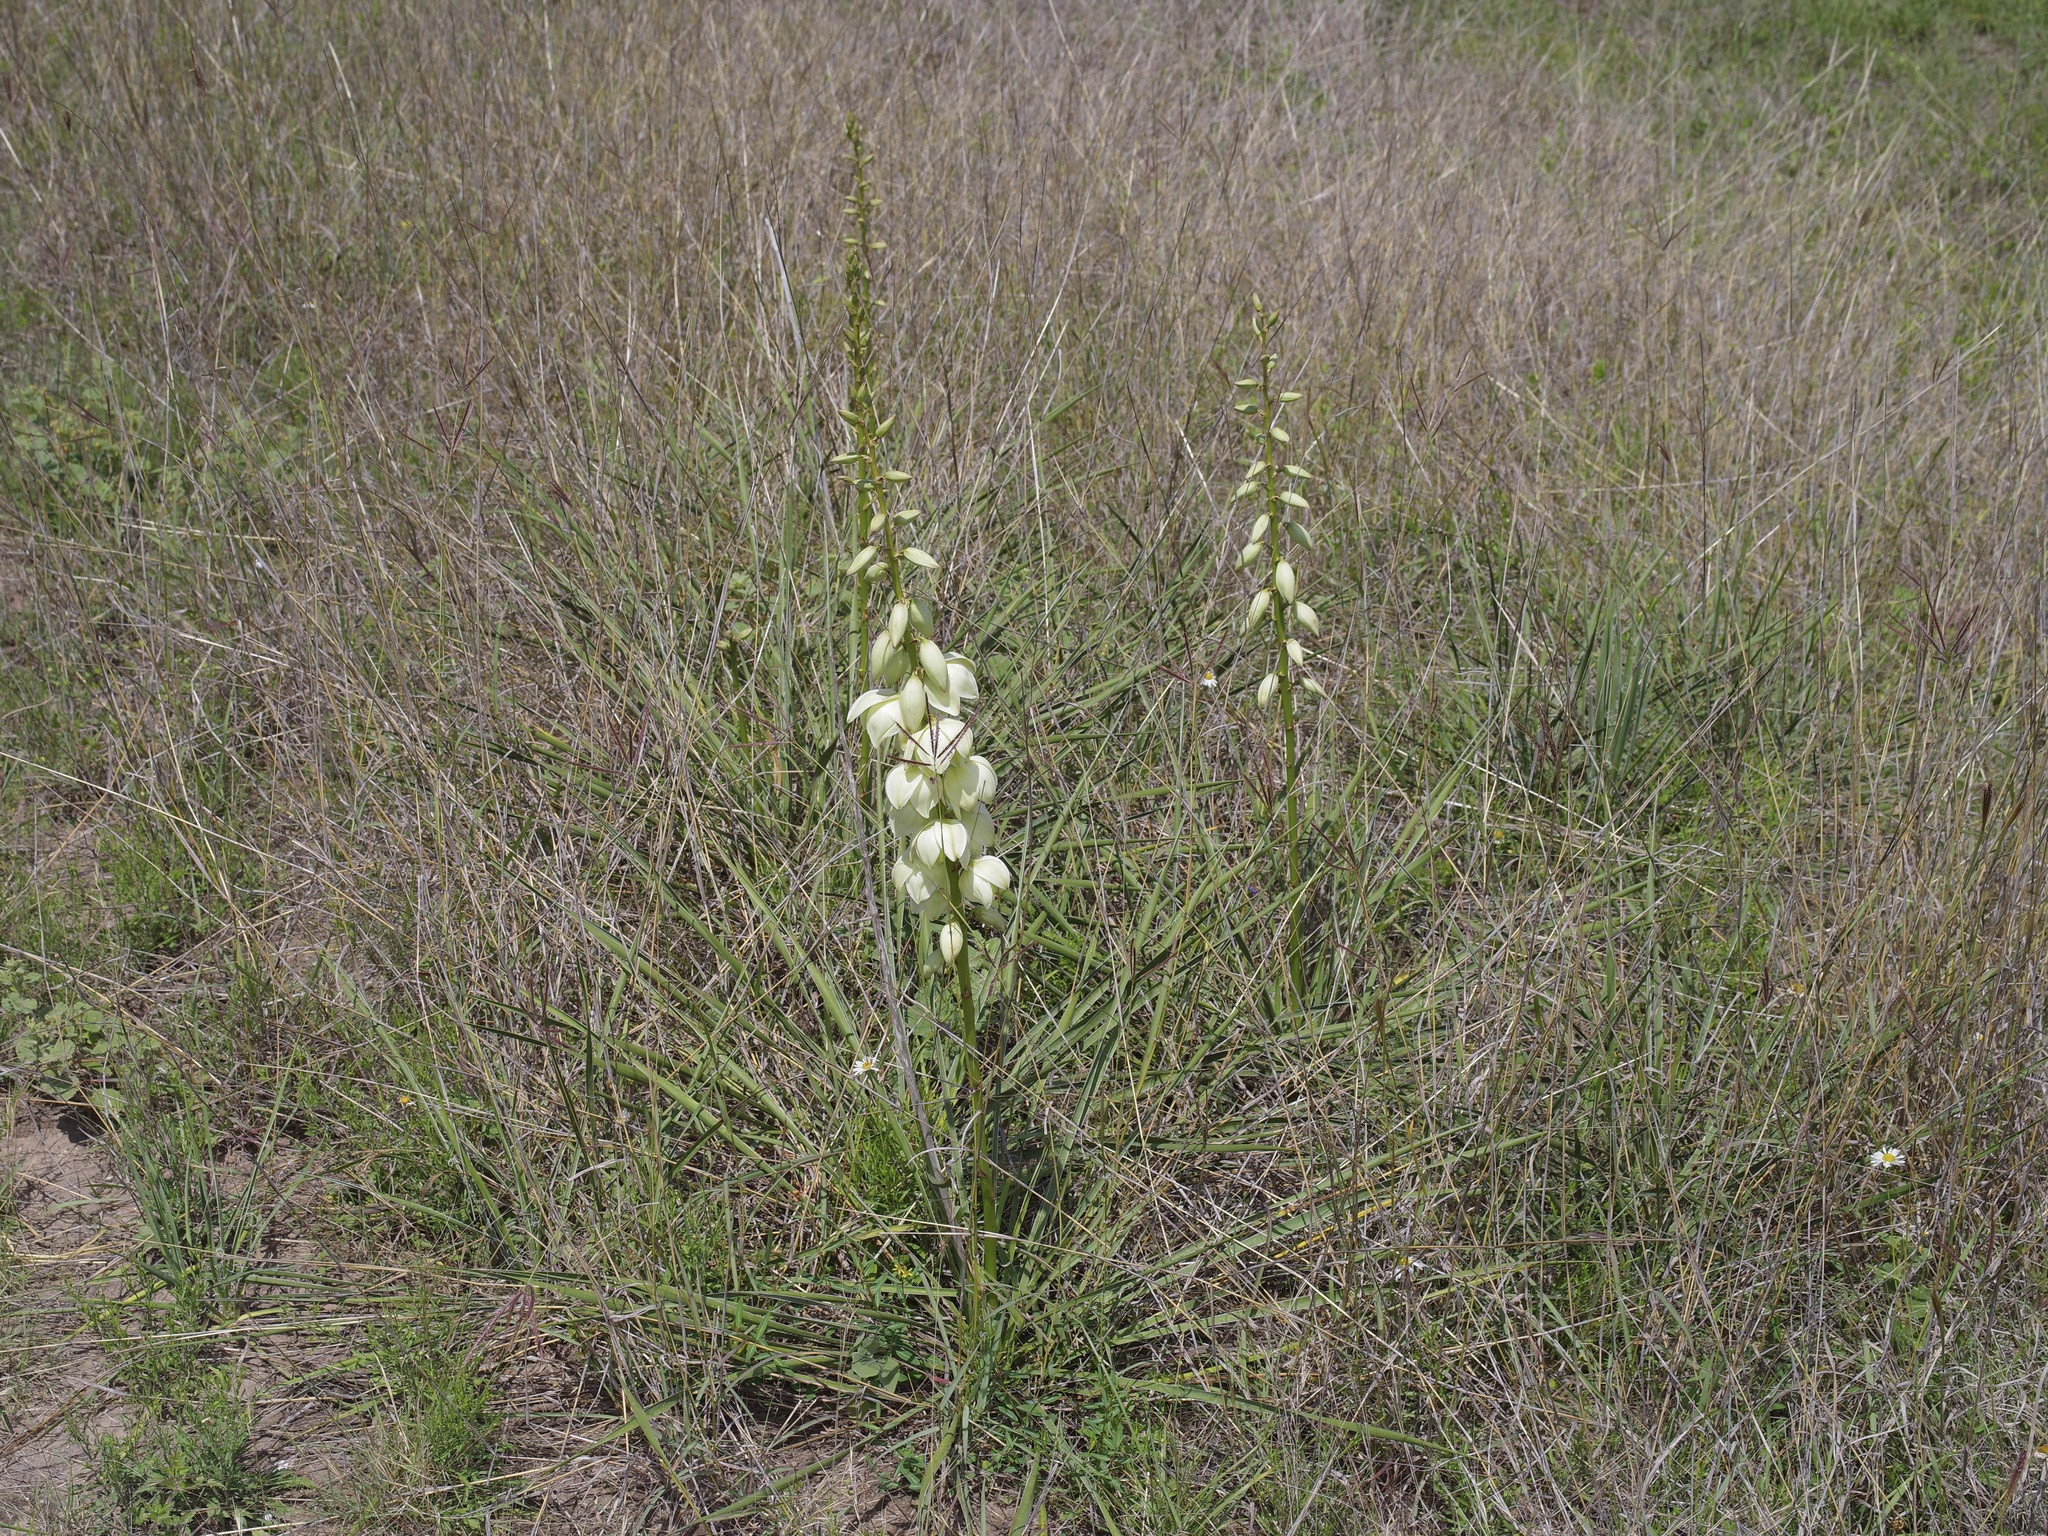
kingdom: Plantae
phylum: Tracheophyta
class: Liliopsida
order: Asparagales
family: Asparagaceae
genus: Yucca
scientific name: Yucca arkansana
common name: Arkansas yucca
